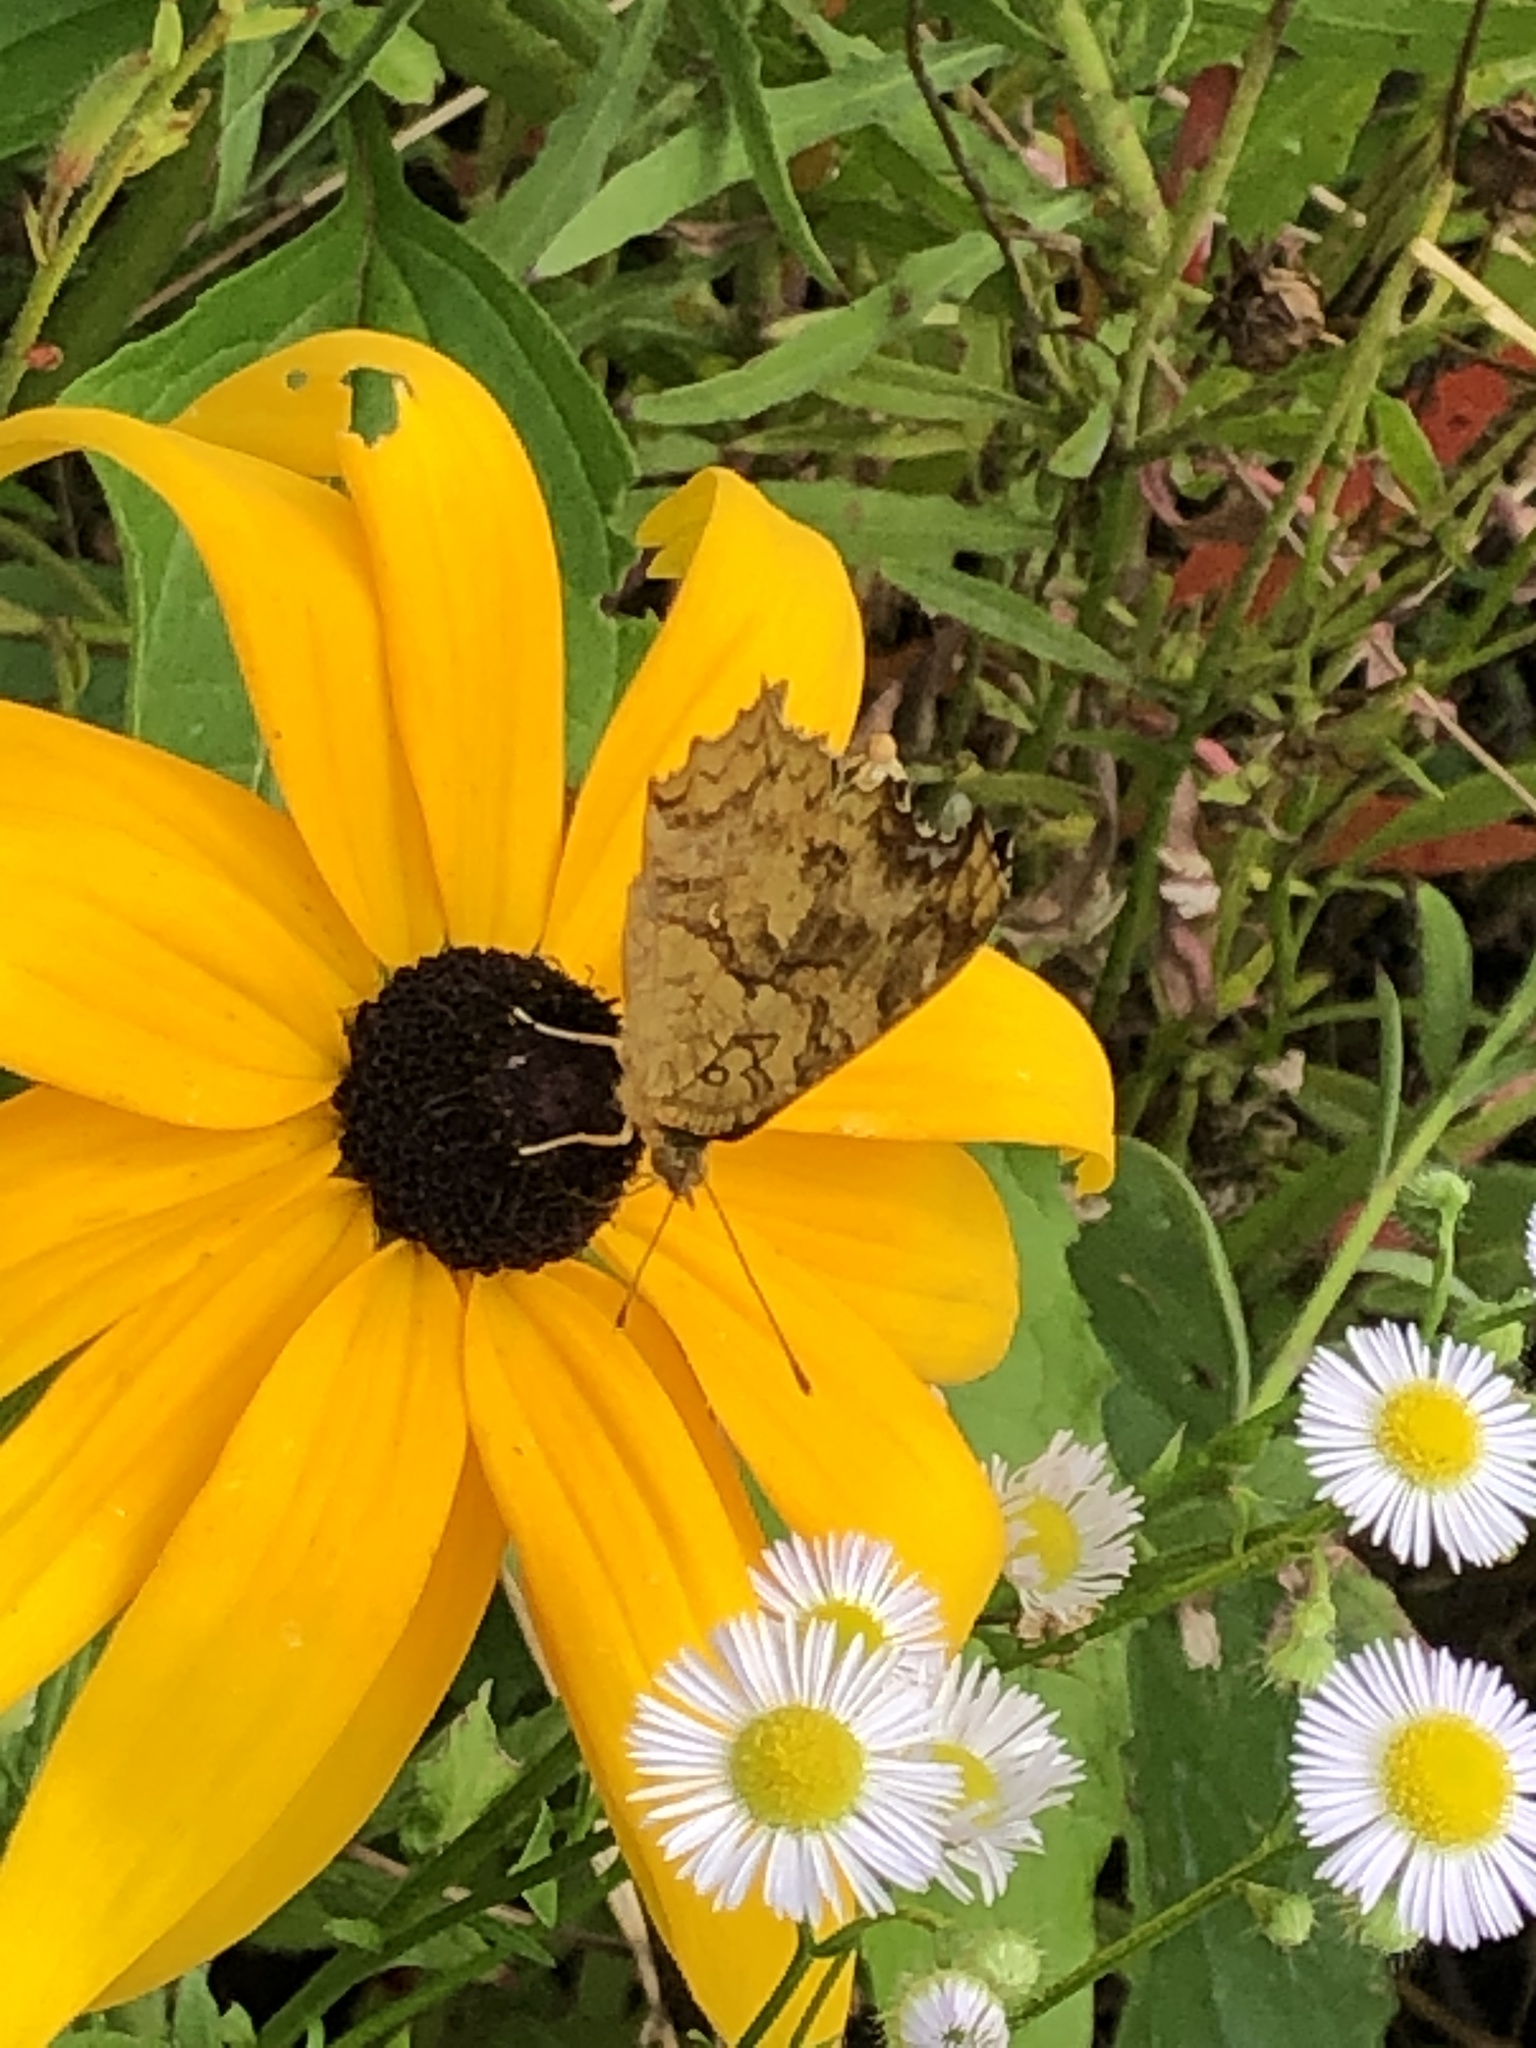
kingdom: Animalia
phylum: Arthropoda
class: Insecta
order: Lepidoptera
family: Nymphalidae
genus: Polygonia
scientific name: Polygonia c-aureum
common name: Asian comma
